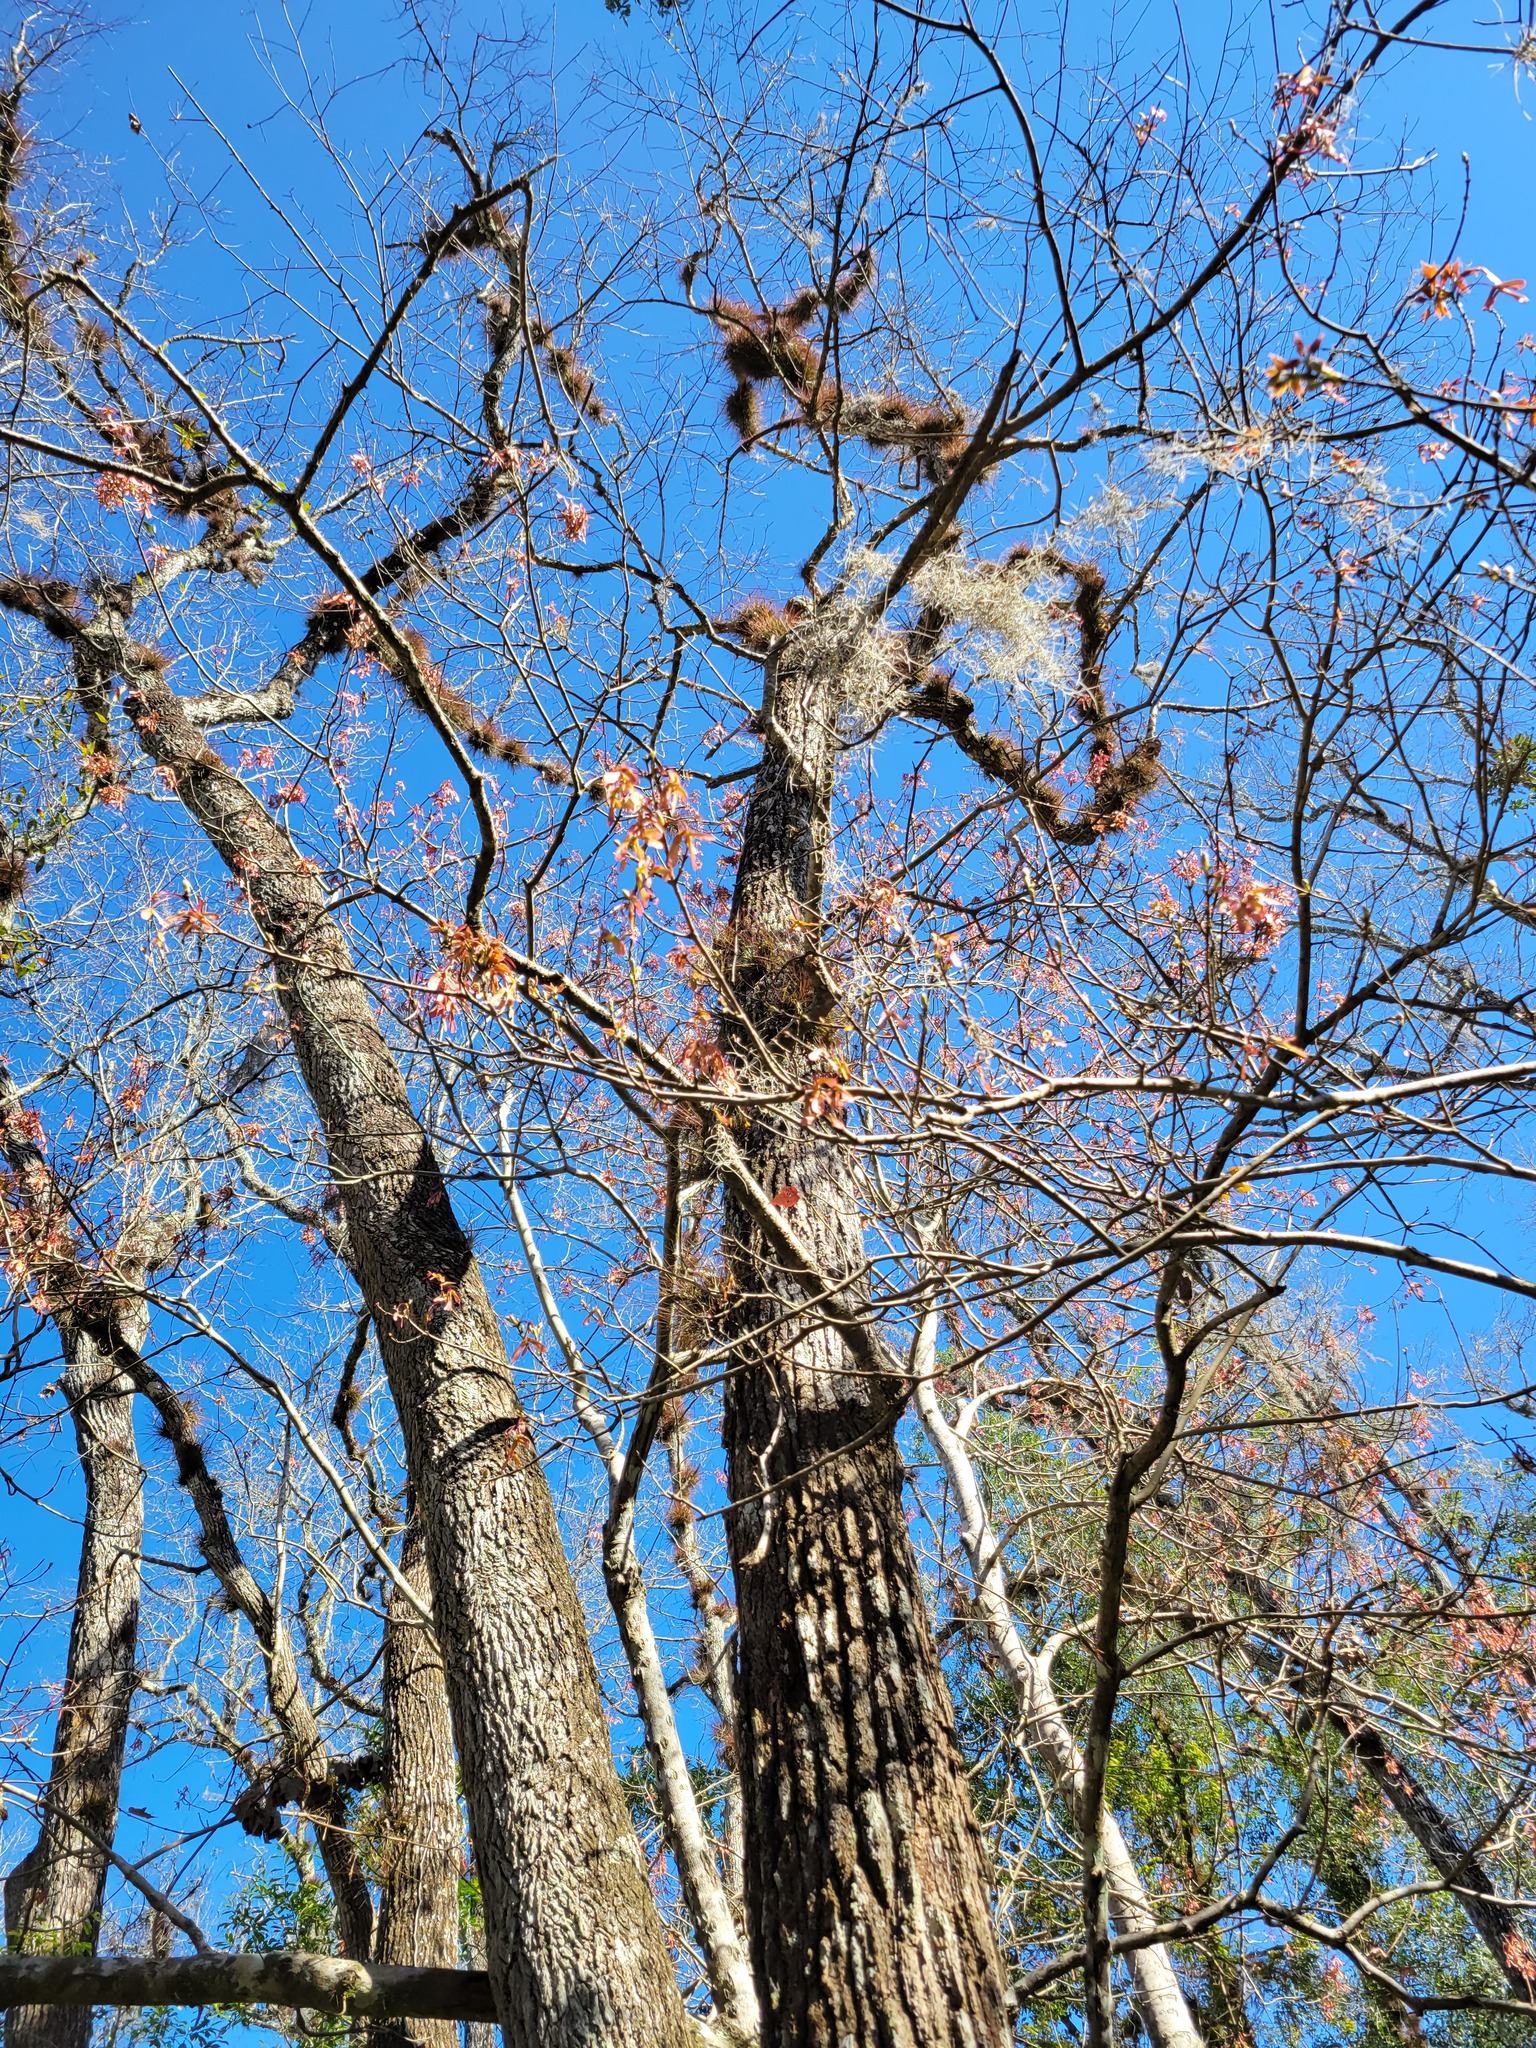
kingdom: Plantae
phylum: Tracheophyta
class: Magnoliopsida
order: Sapindales
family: Sapindaceae
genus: Acer
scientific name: Acer rubrum
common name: Red maple
